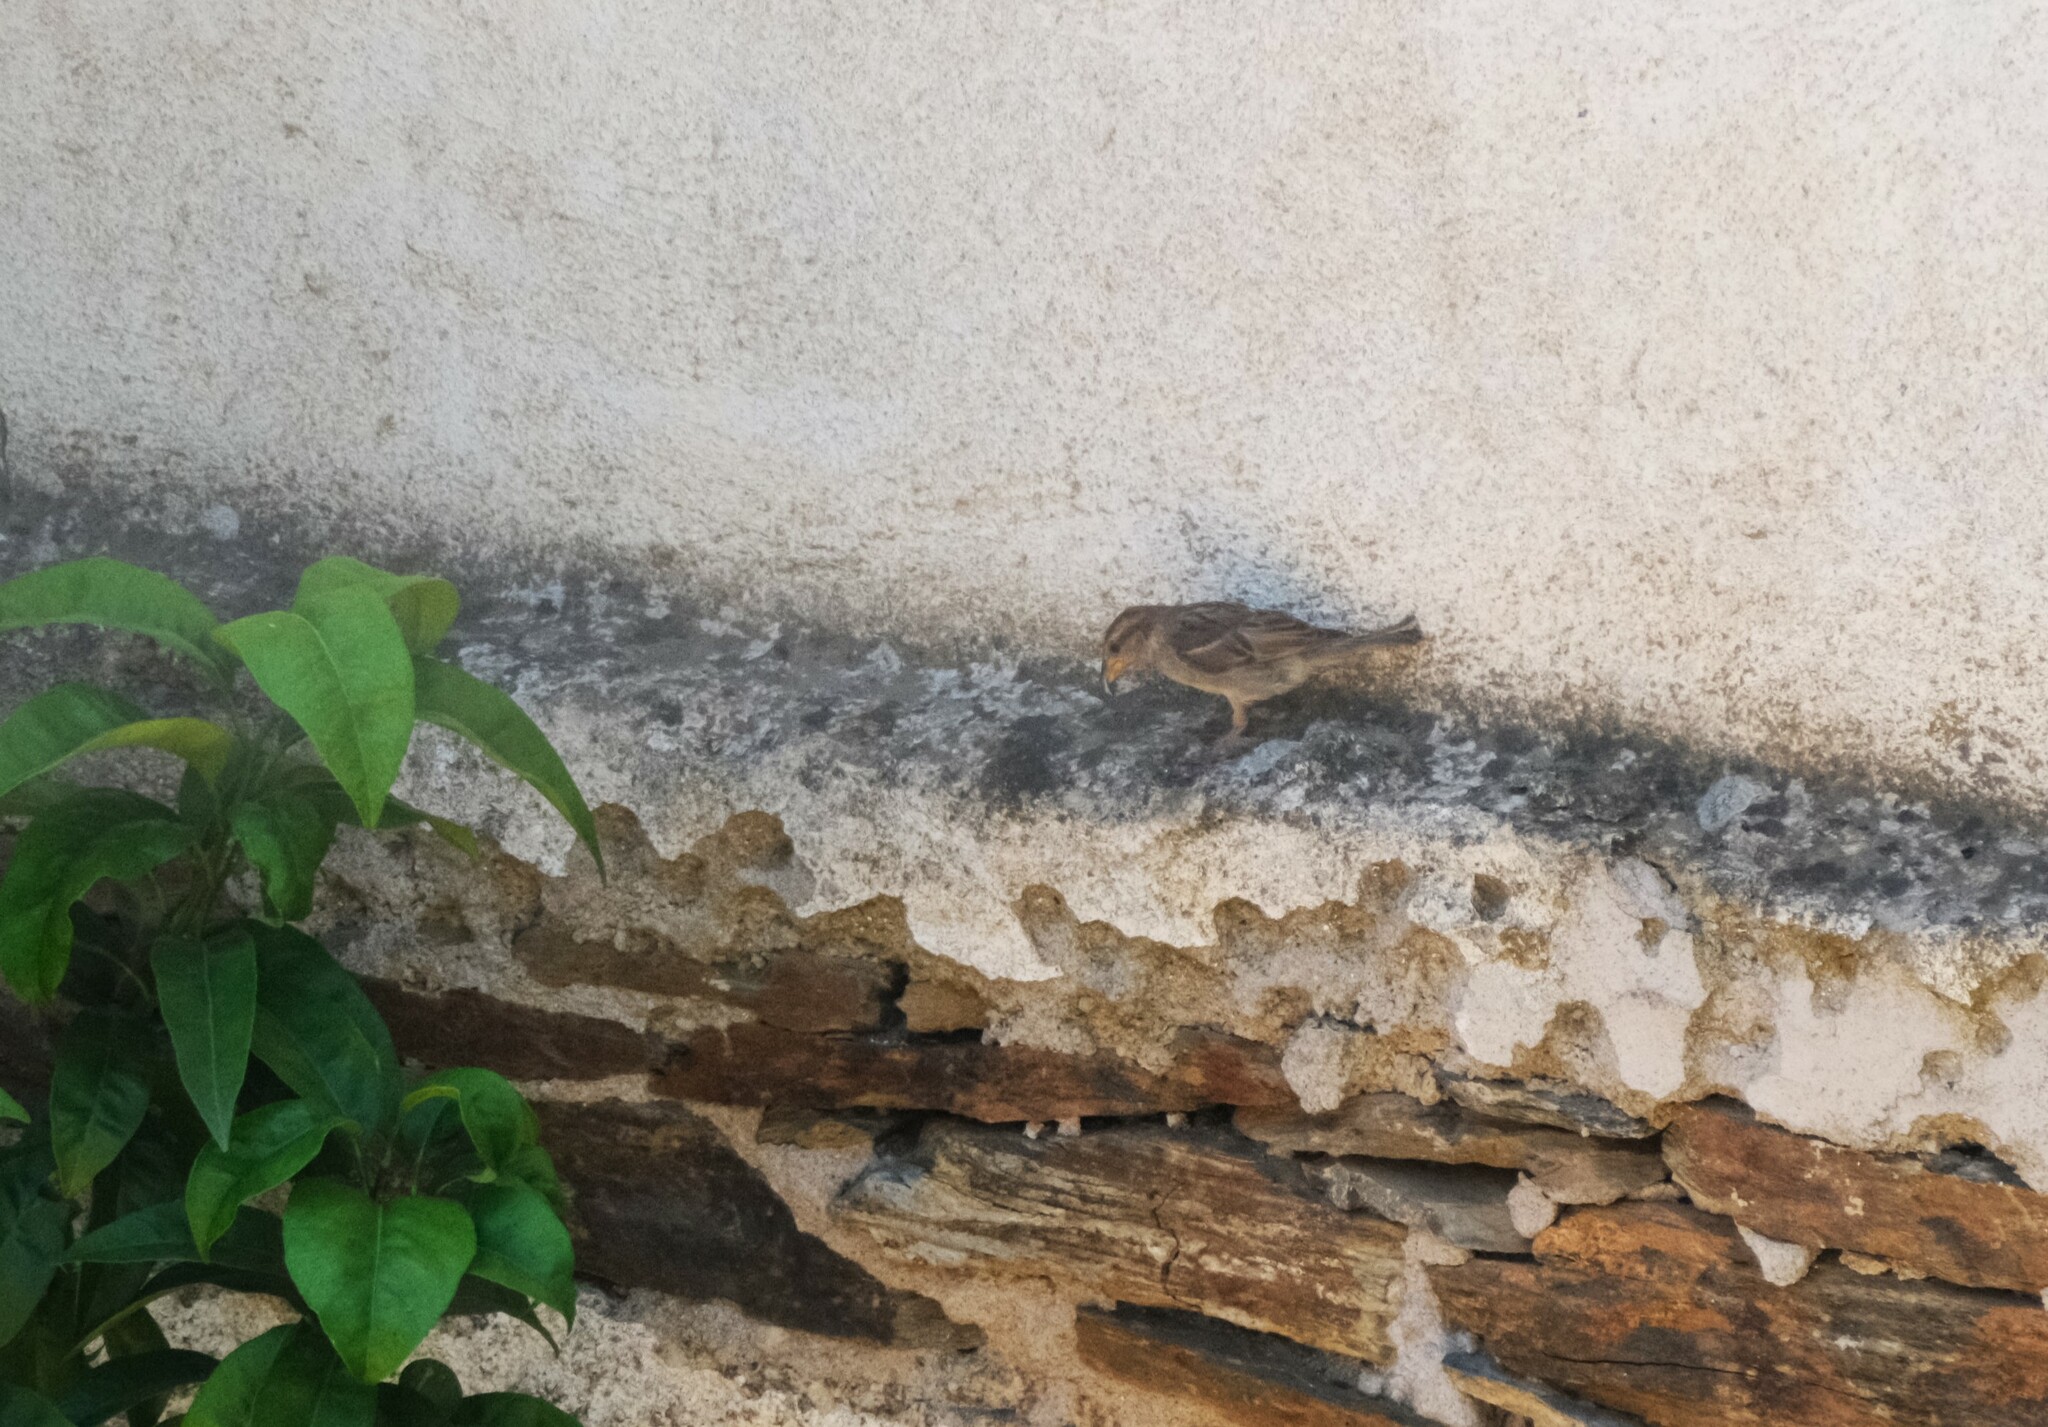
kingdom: Animalia
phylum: Chordata
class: Aves
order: Passeriformes
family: Passeridae
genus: Passer
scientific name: Passer domesticus
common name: House sparrow
